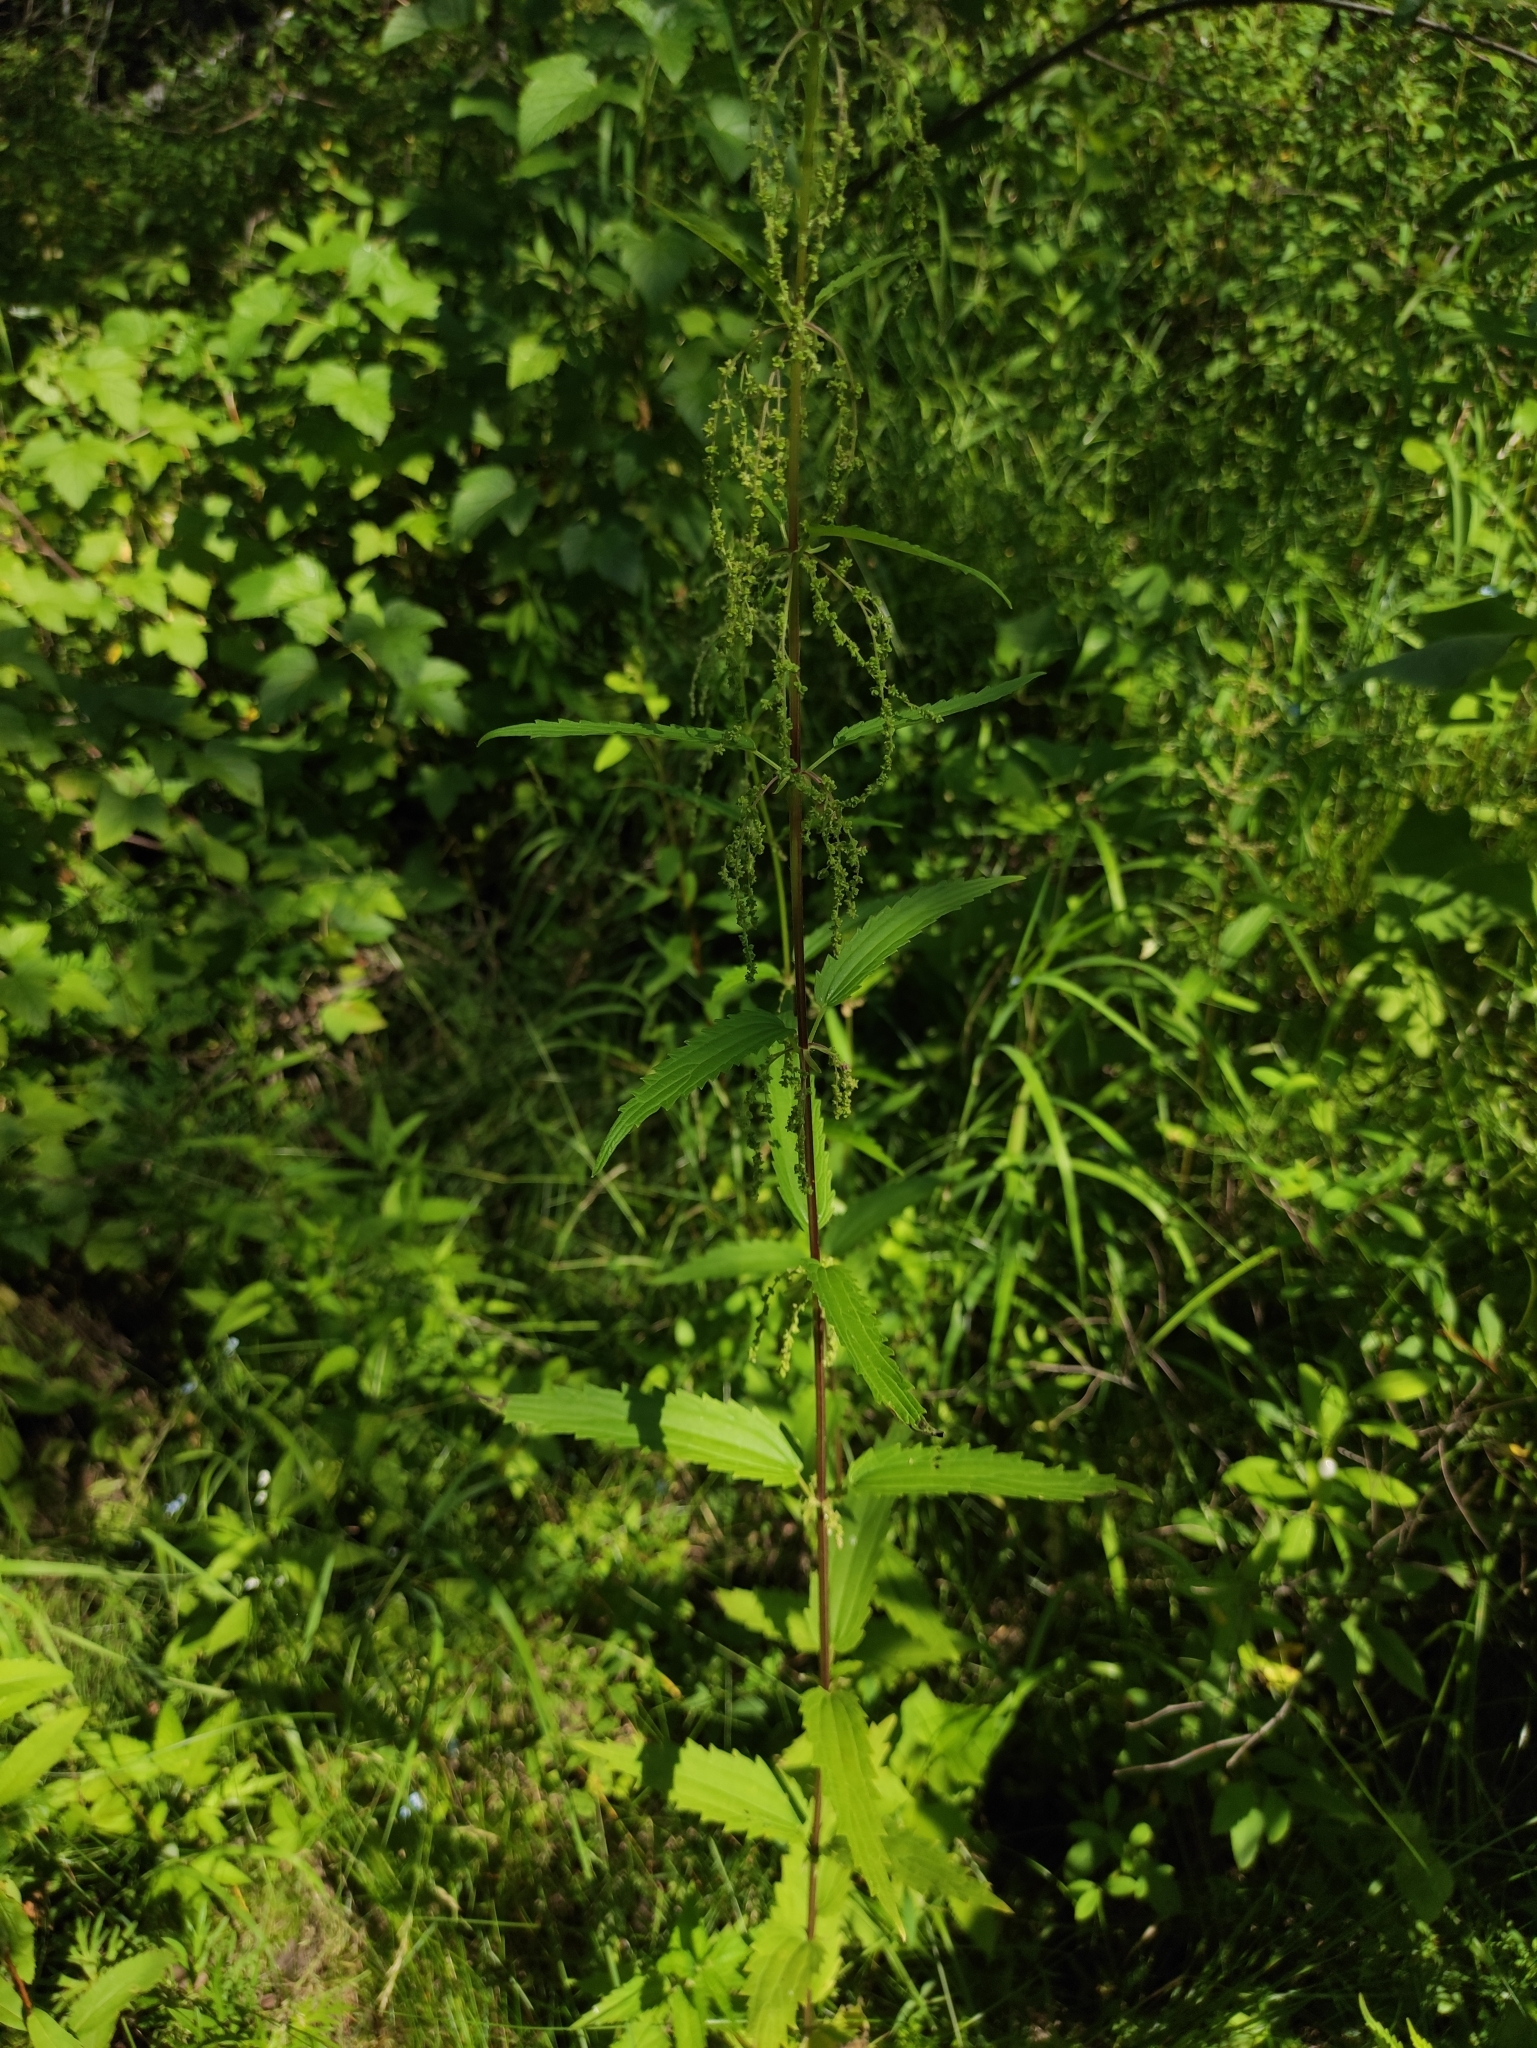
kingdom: Plantae
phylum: Tracheophyta
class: Magnoliopsida
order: Rosales
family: Urticaceae
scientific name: Urticaceae
